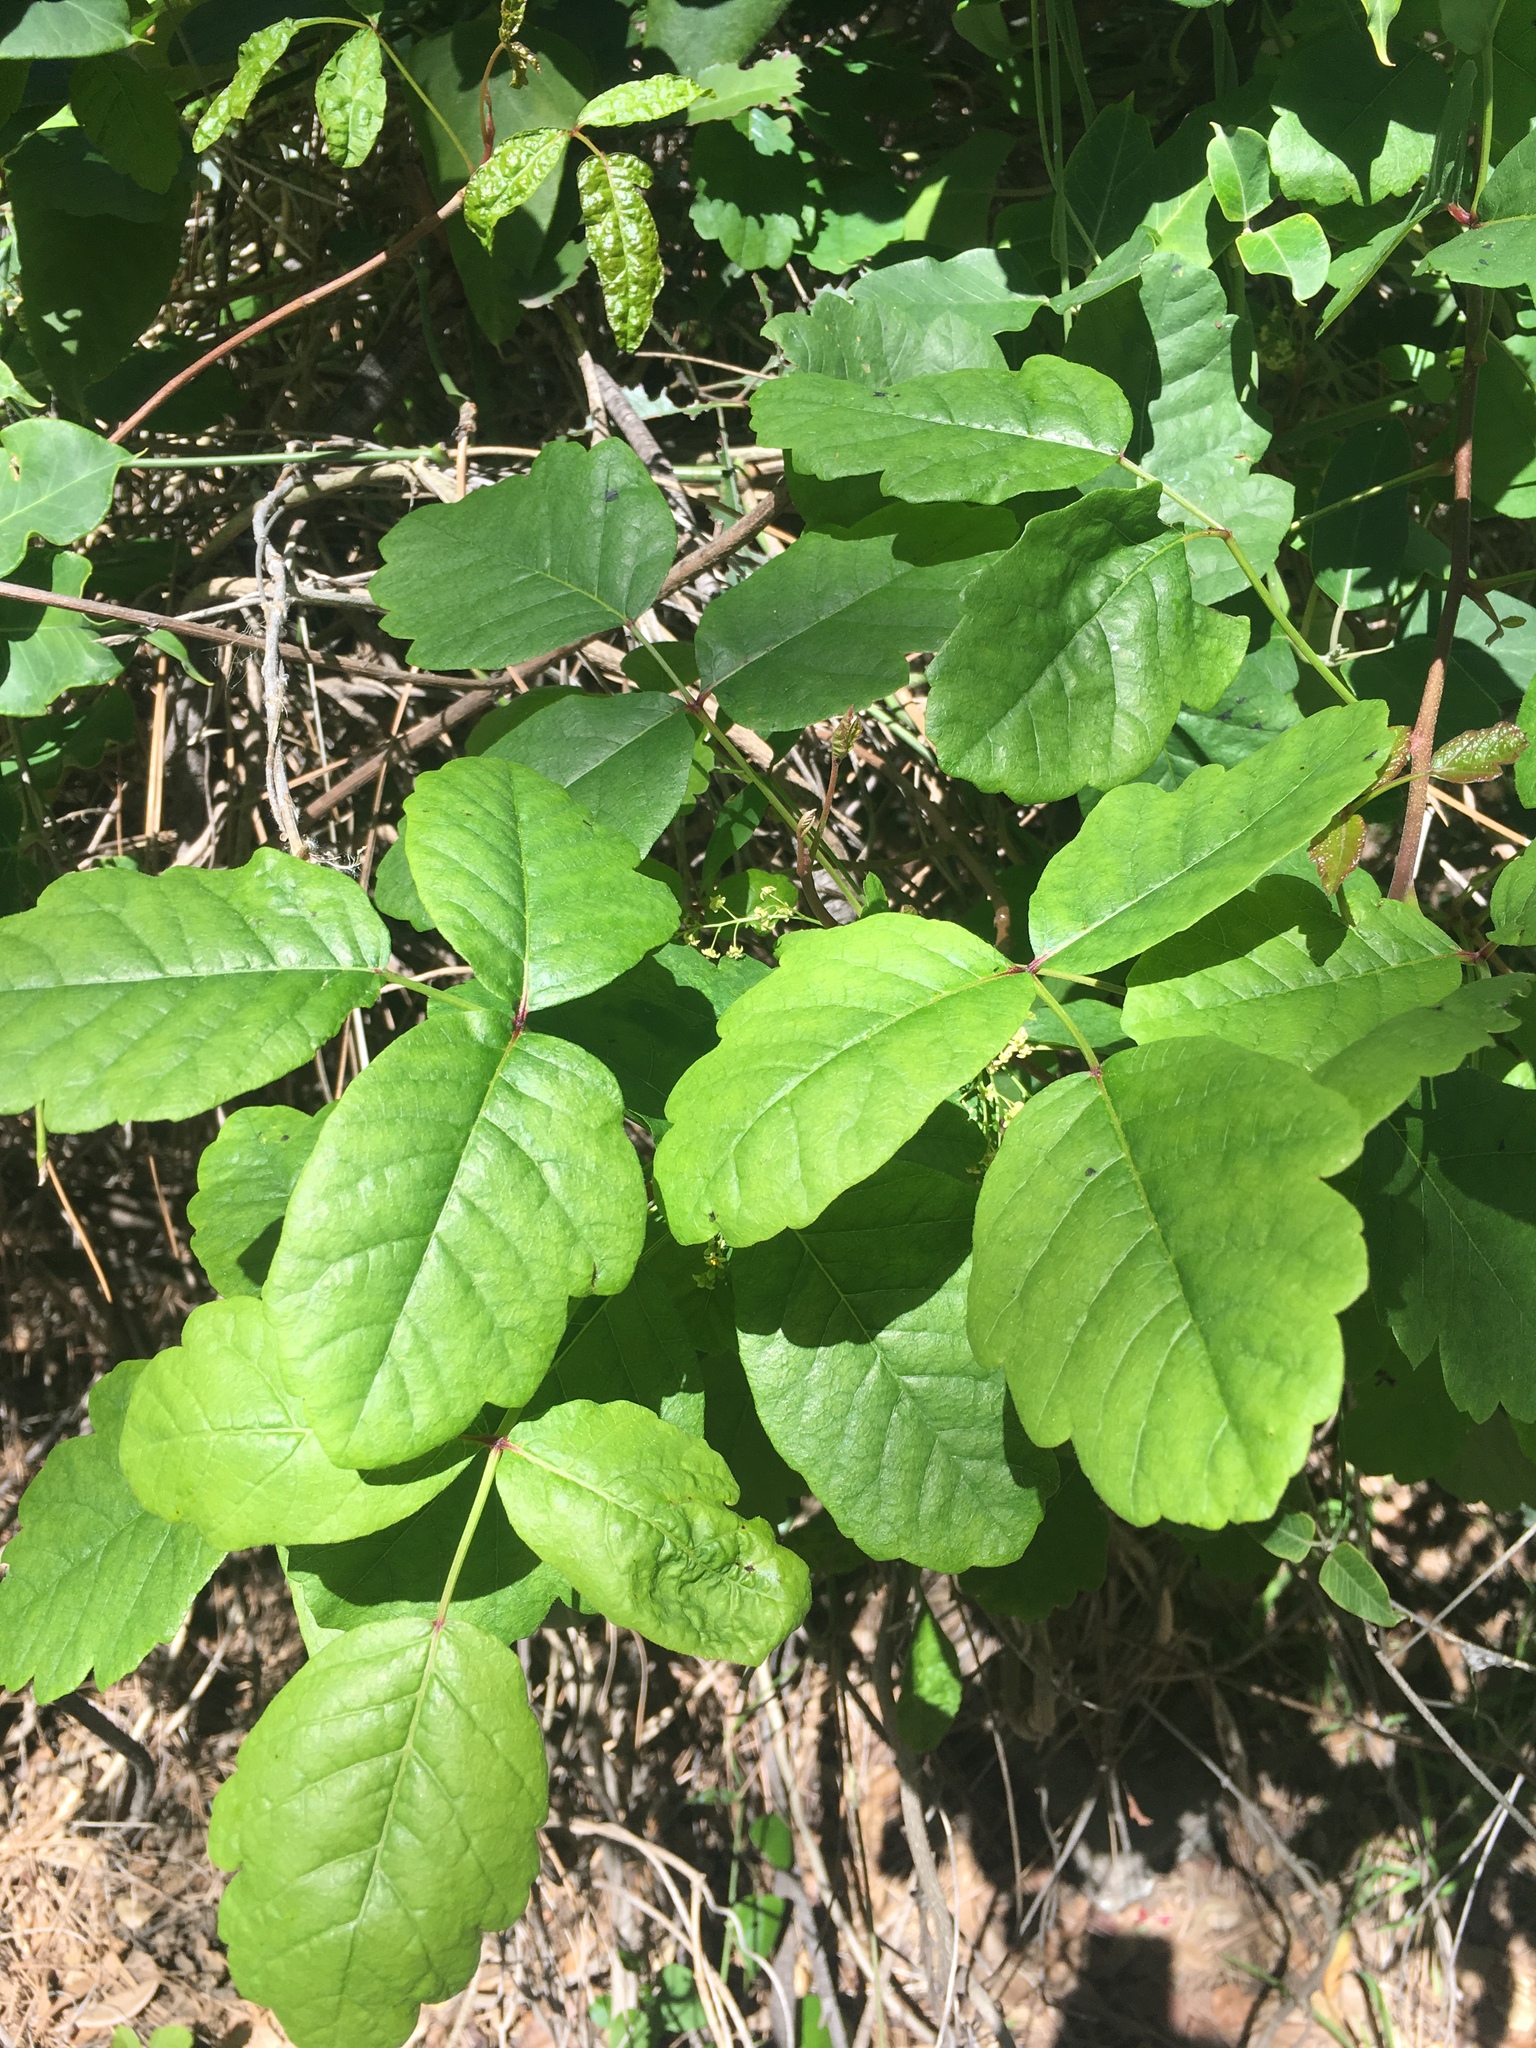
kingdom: Plantae
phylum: Tracheophyta
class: Magnoliopsida
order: Sapindales
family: Anacardiaceae
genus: Toxicodendron
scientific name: Toxicodendron diversilobum
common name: Pacific poison-oak
